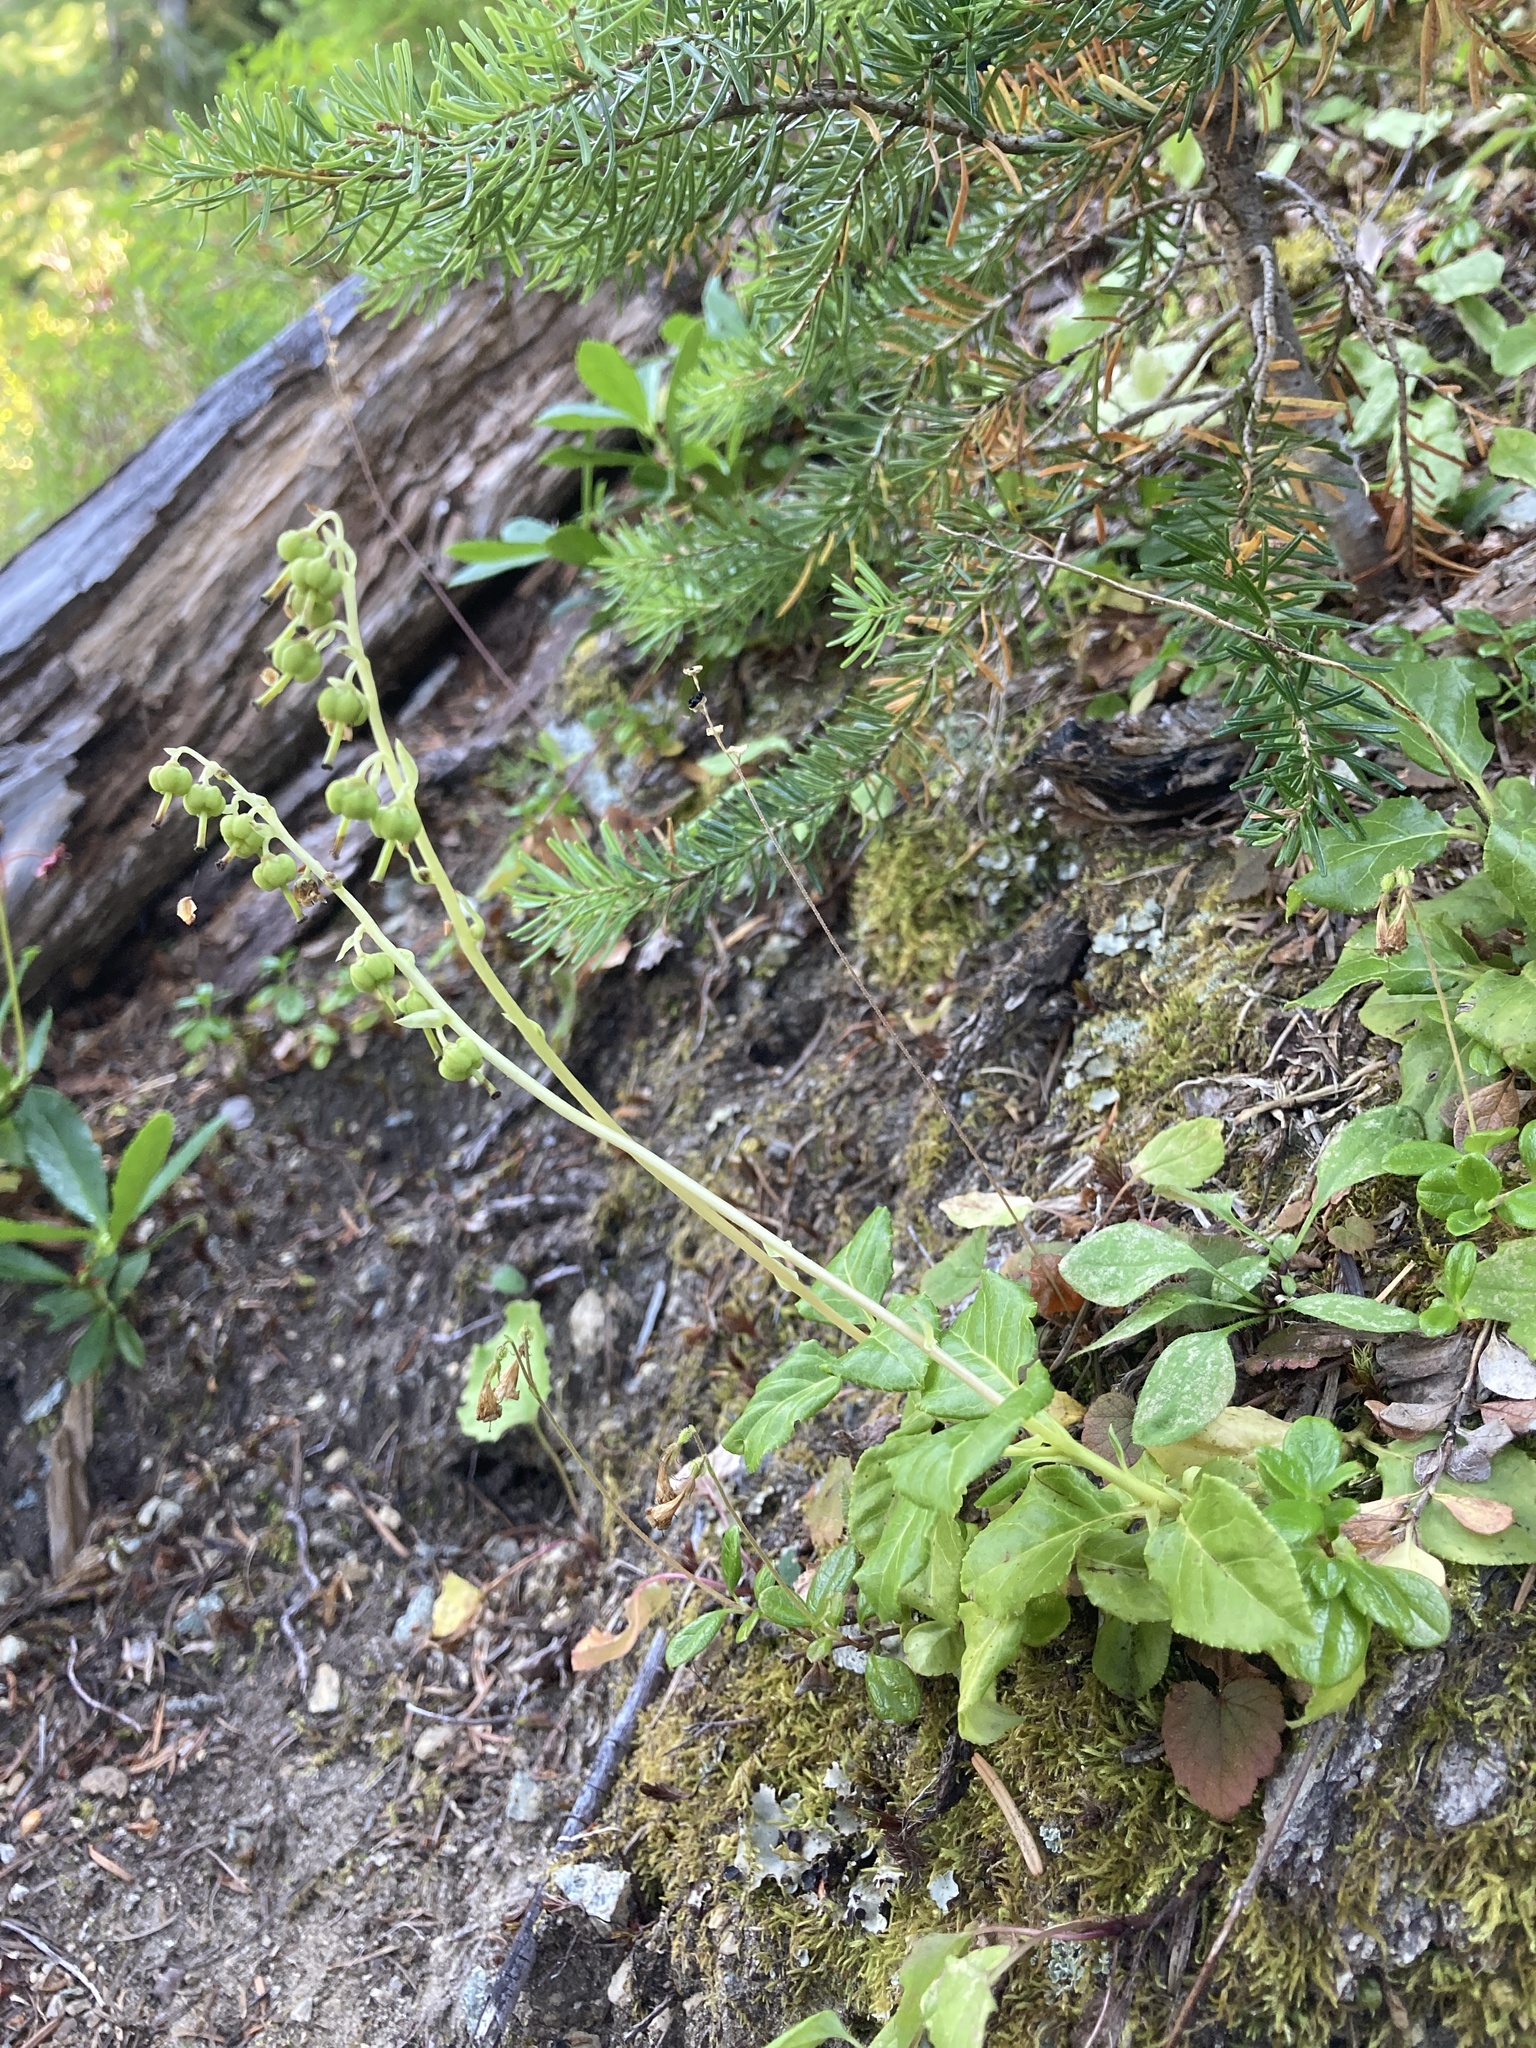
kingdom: Plantae
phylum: Tracheophyta
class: Magnoliopsida
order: Ericales
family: Ericaceae
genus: Orthilia
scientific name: Orthilia secunda
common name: One-sided orthilia
